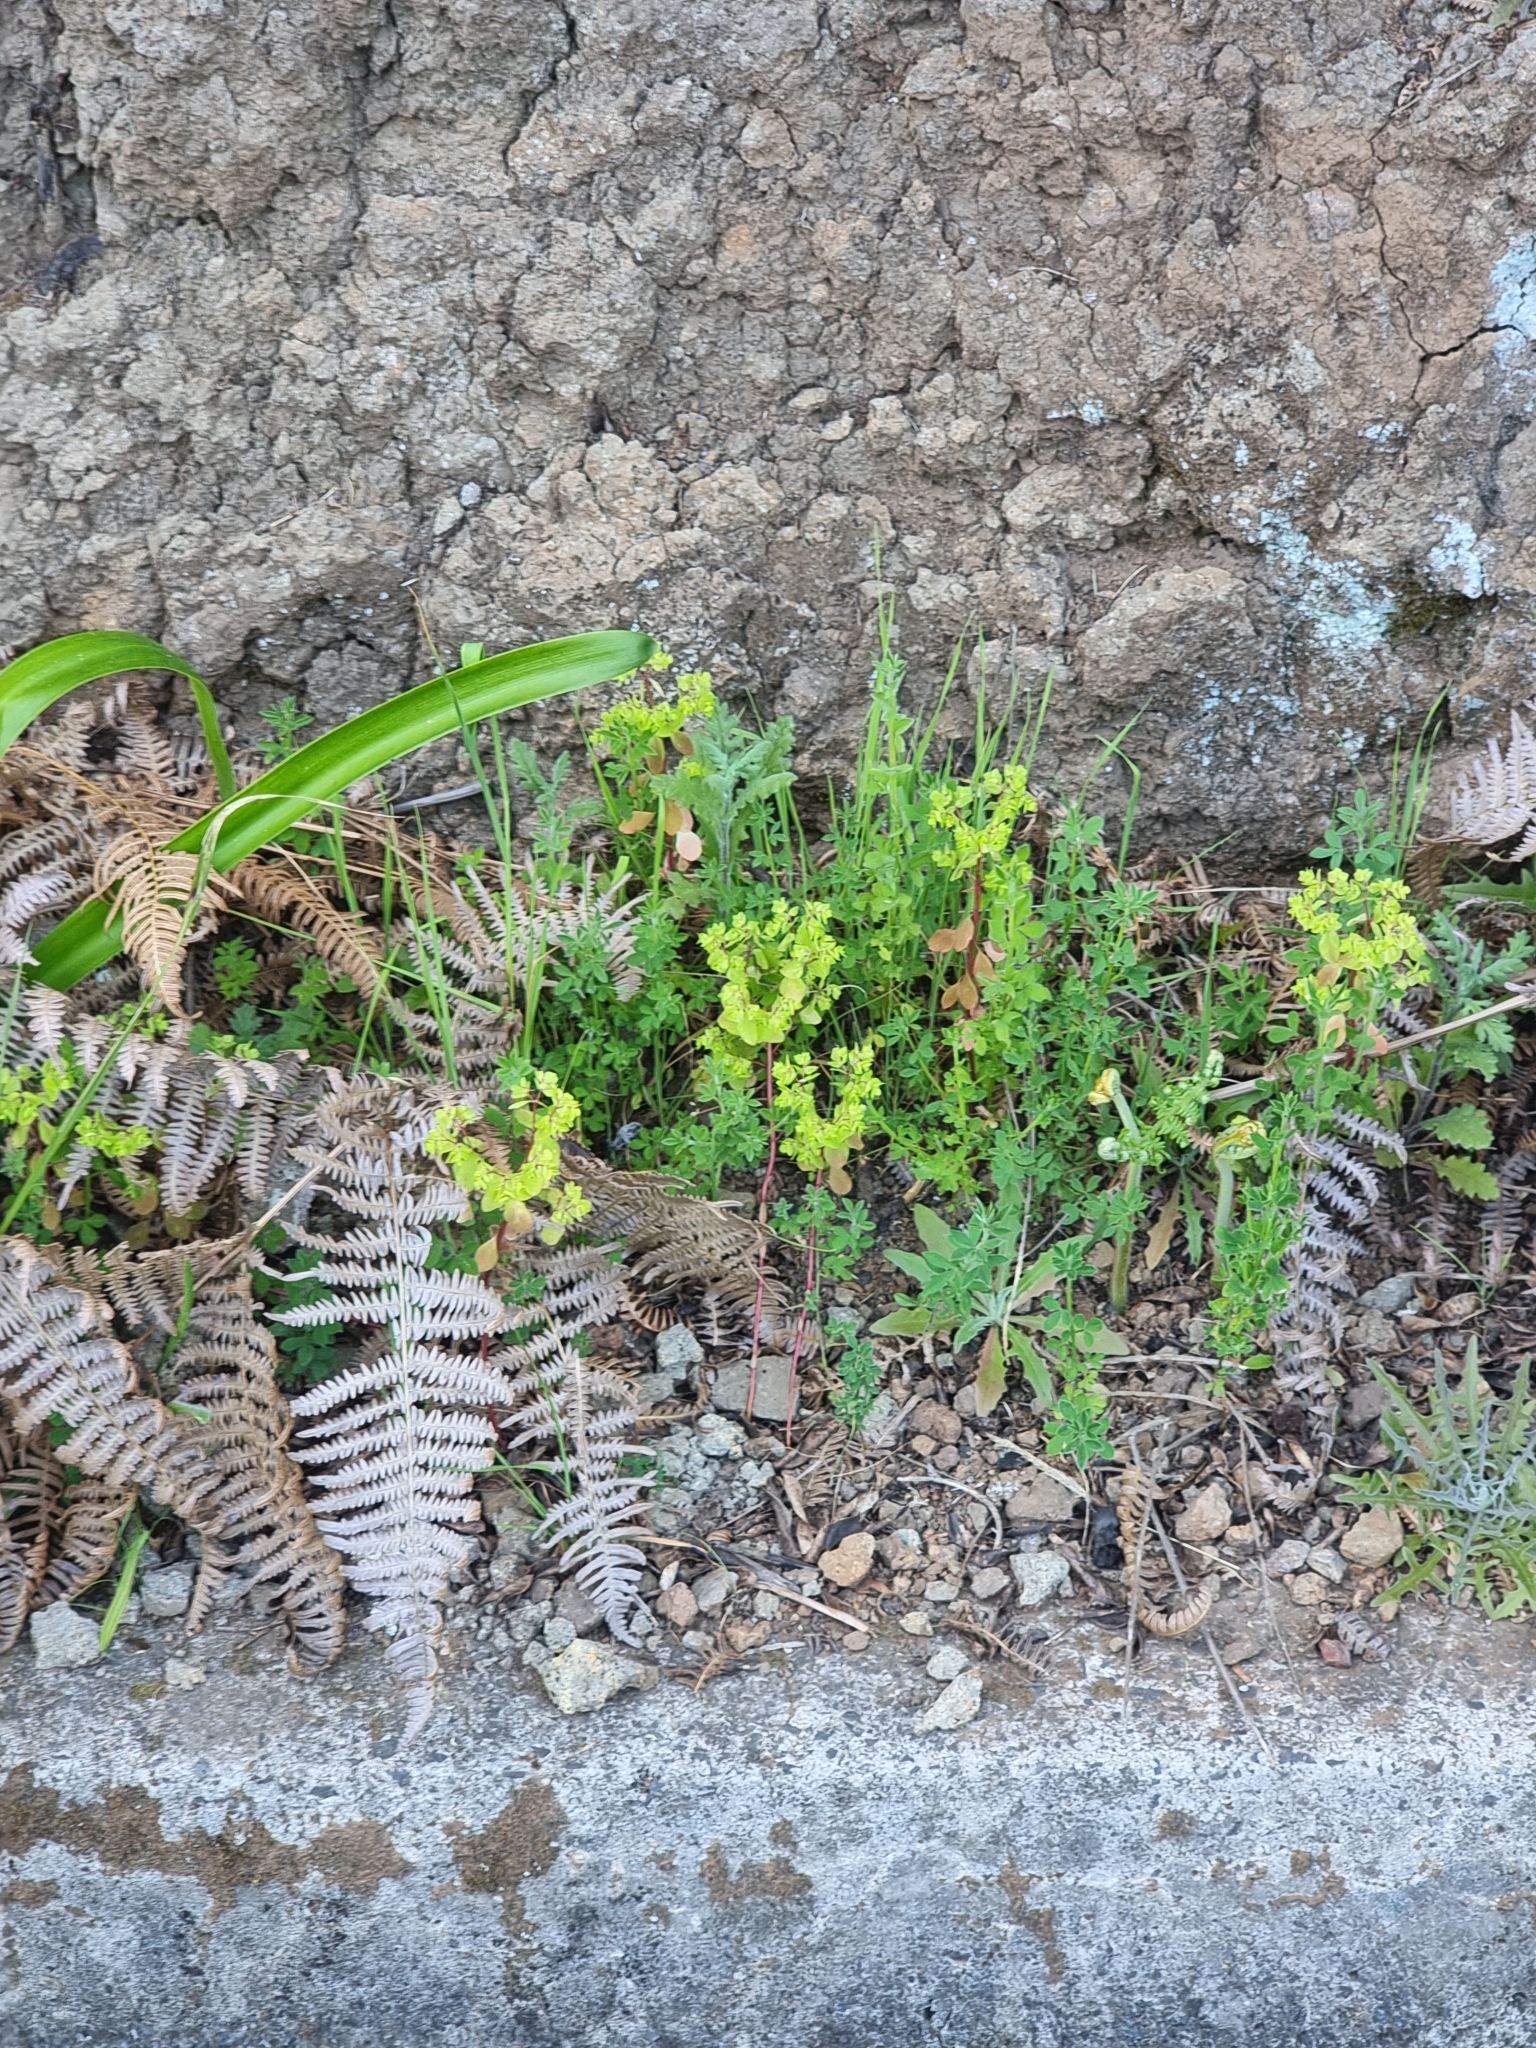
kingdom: Plantae
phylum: Tracheophyta
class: Magnoliopsida
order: Malpighiales
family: Euphorbiaceae
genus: Euphorbia
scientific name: Euphorbia peplus
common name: Petty spurge
